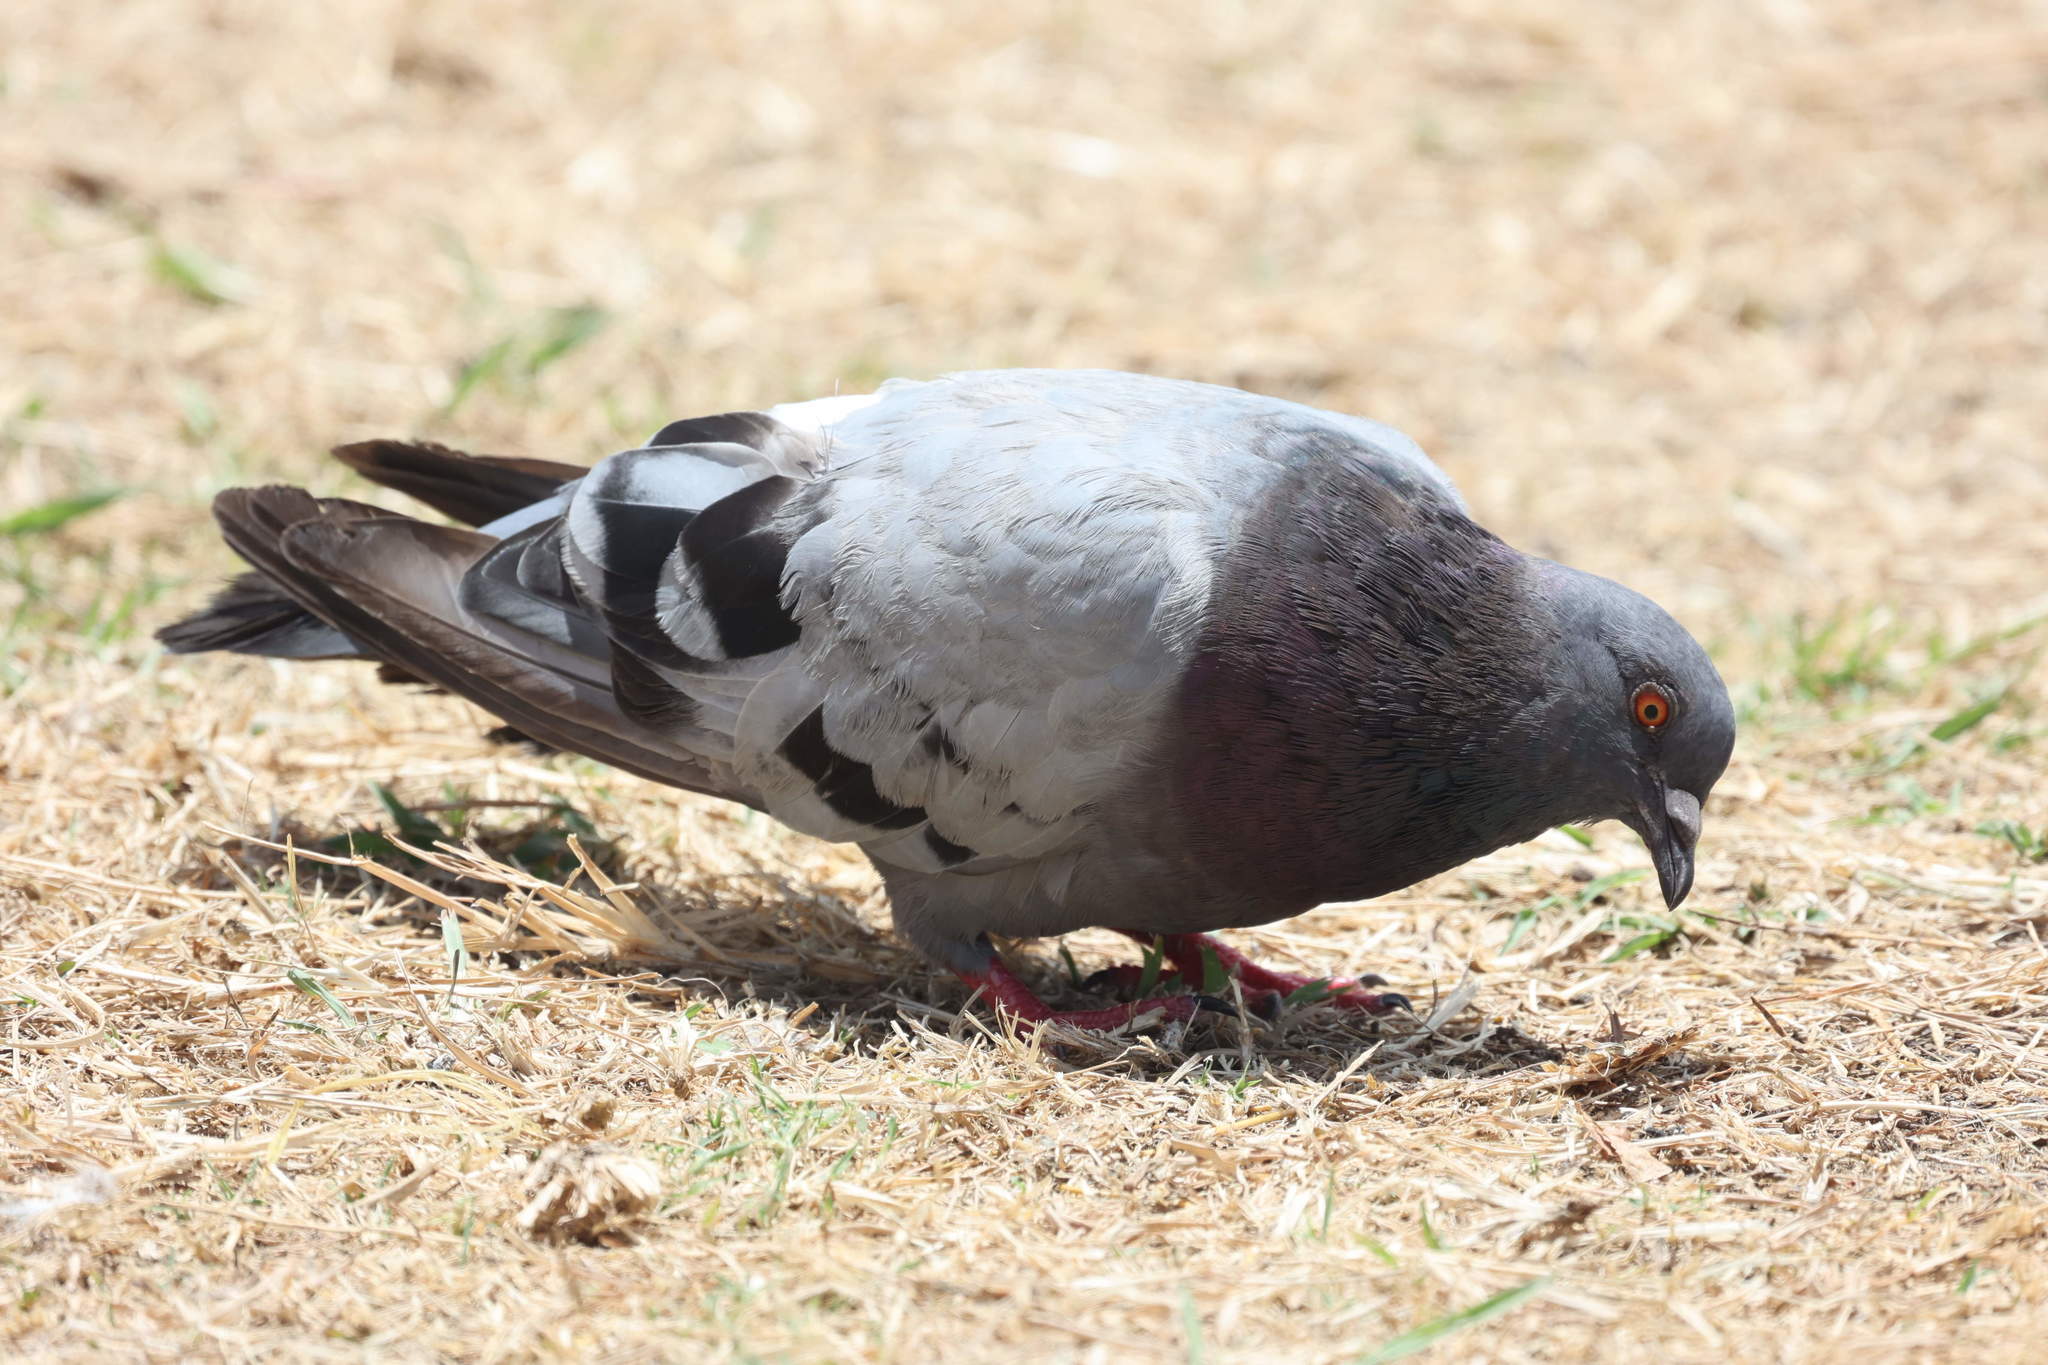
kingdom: Animalia
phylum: Chordata
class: Aves
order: Columbiformes
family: Columbidae
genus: Columba
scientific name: Columba livia
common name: Rock pigeon
